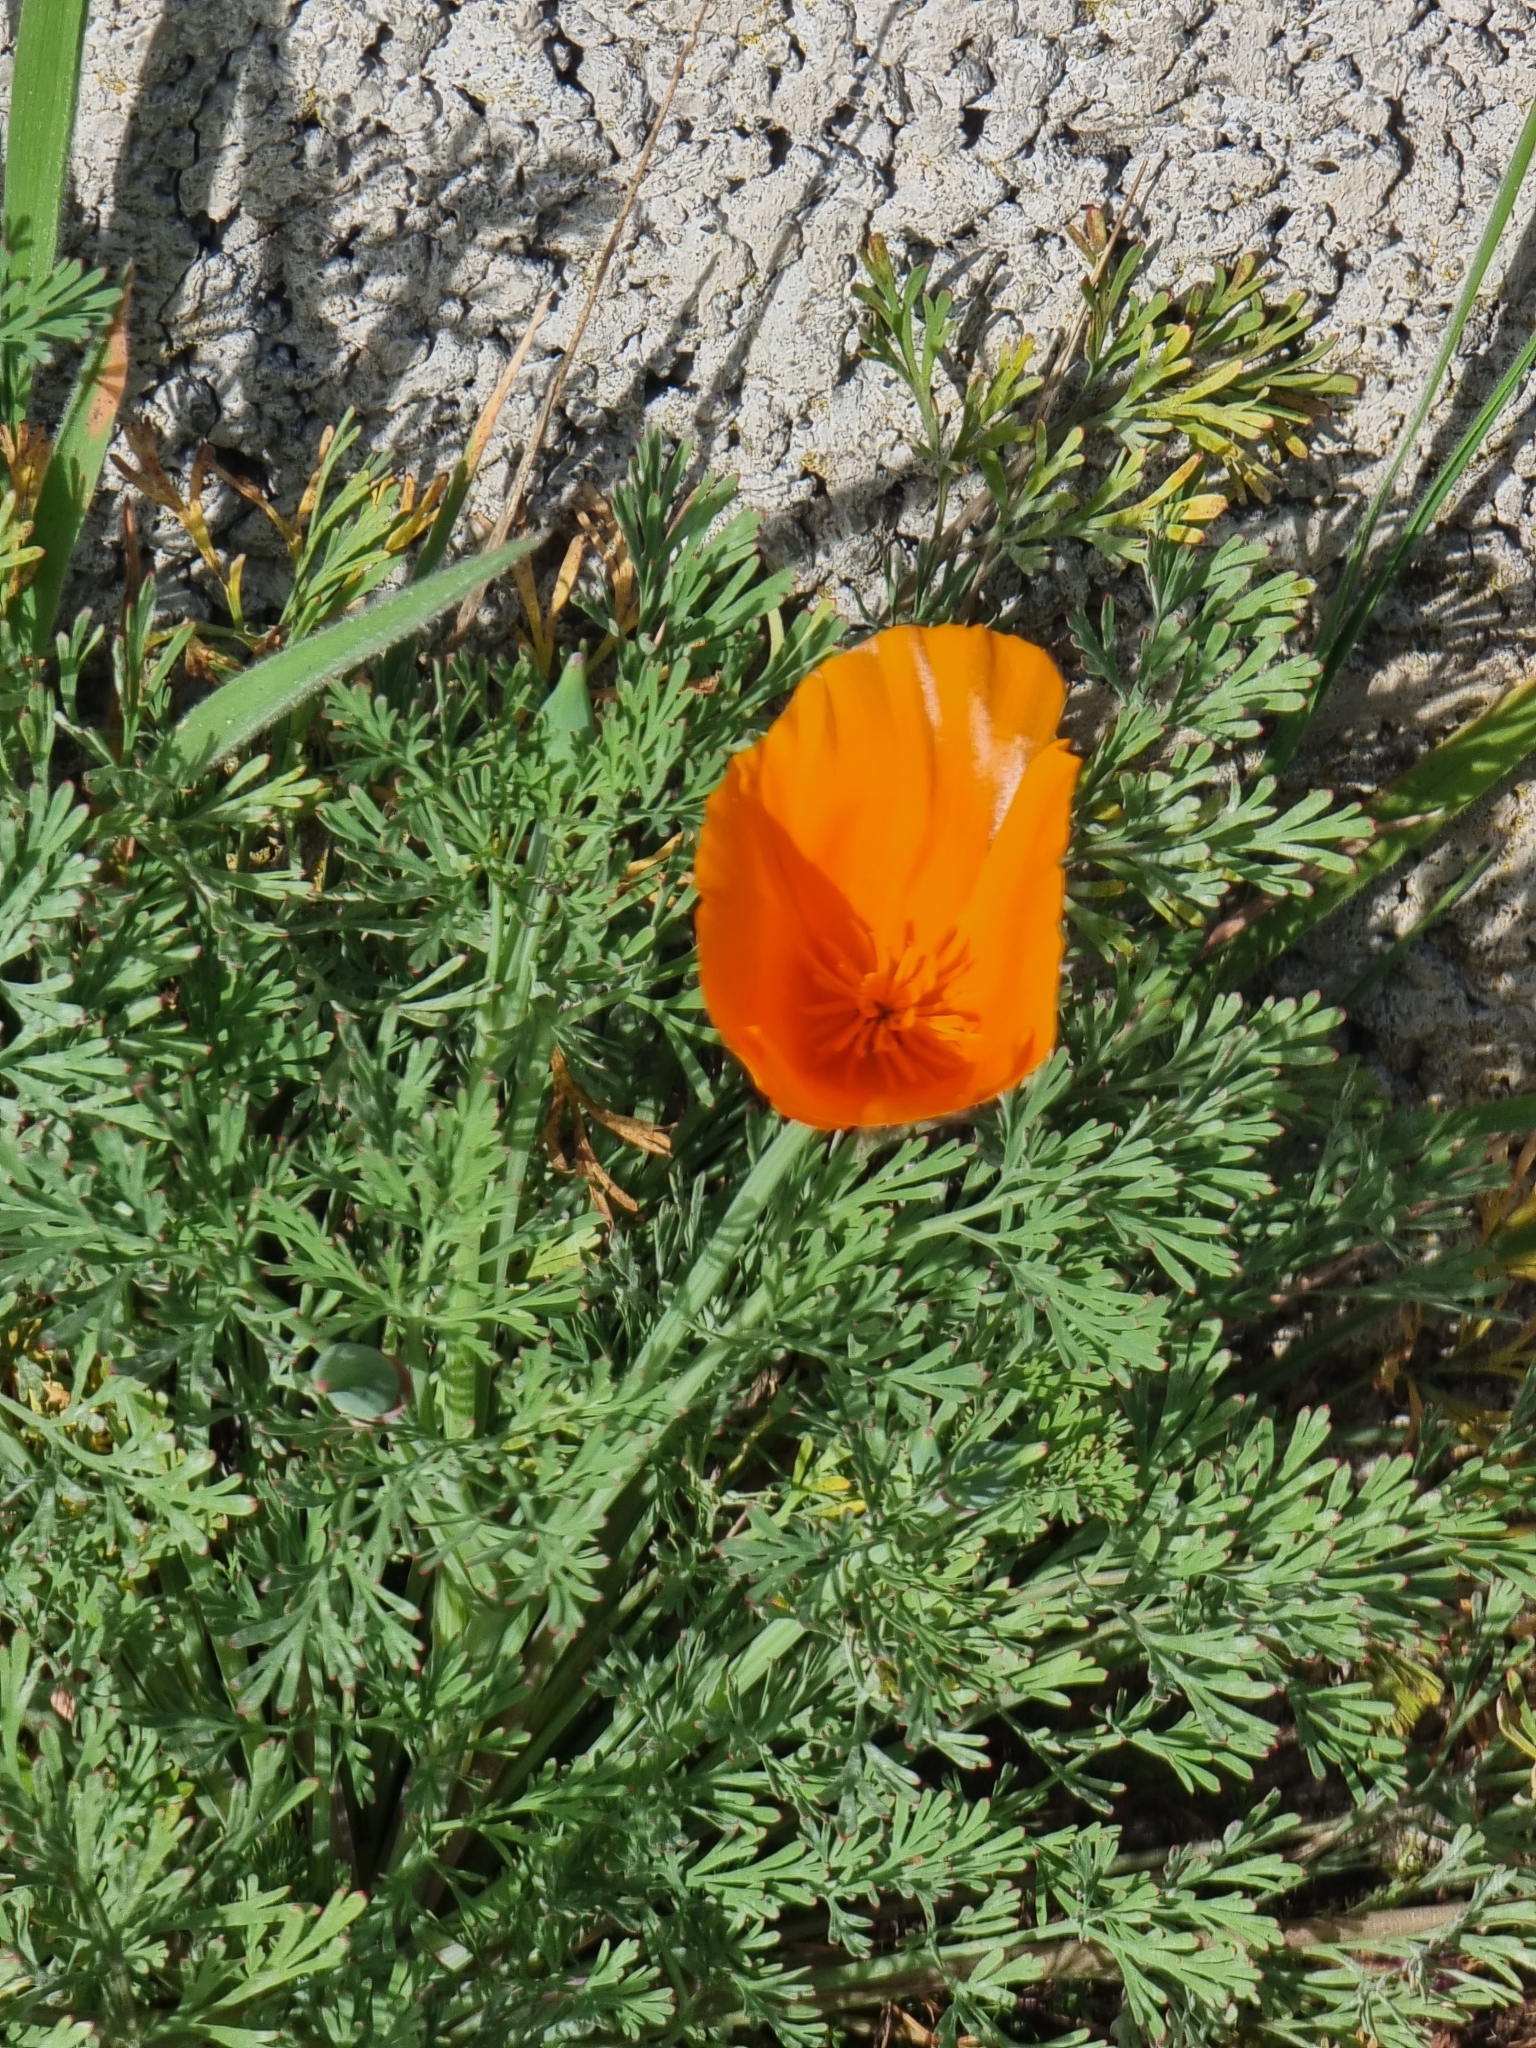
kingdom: Plantae
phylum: Tracheophyta
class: Magnoliopsida
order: Ranunculales
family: Papaveraceae
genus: Eschscholzia
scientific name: Eschscholzia californica
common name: California poppy
